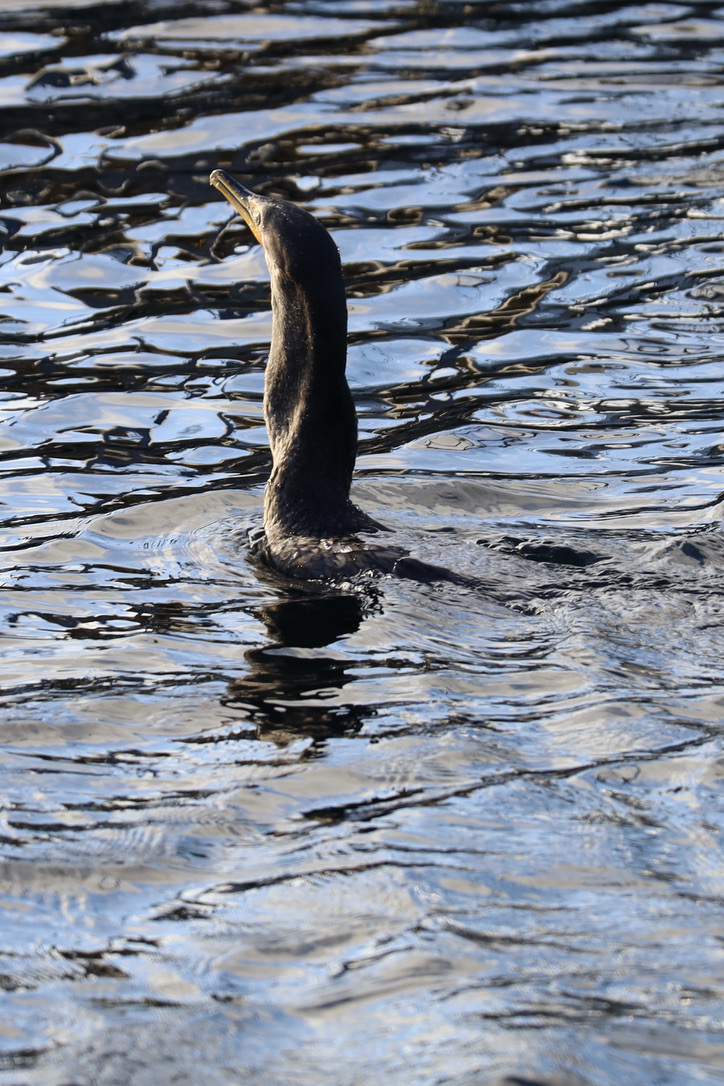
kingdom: Animalia
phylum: Chordata
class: Aves
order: Suliformes
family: Phalacrocoracidae
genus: Phalacrocorax
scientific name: Phalacrocorax auritus
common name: Double-crested cormorant
